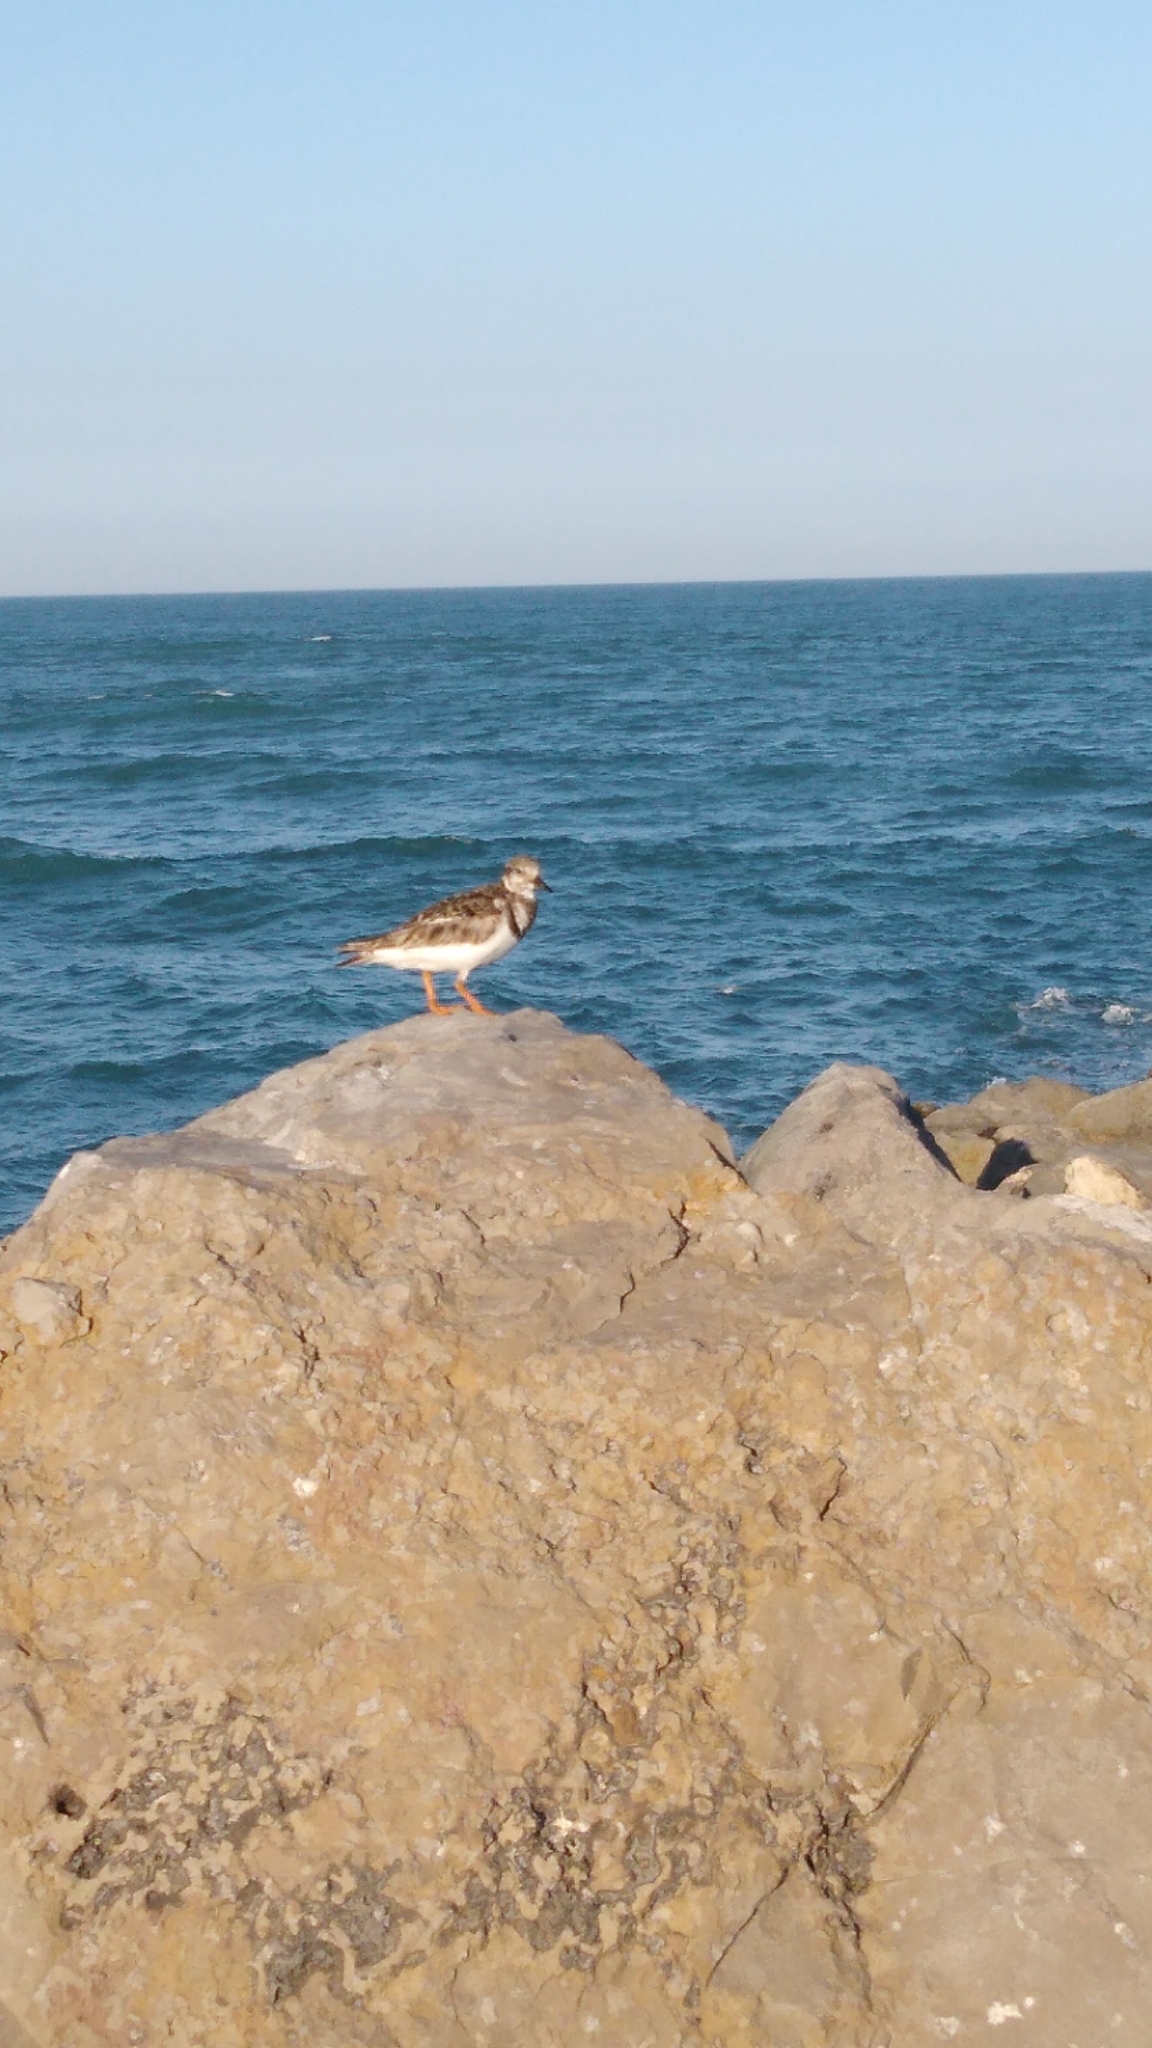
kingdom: Animalia
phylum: Chordata
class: Aves
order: Charadriiformes
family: Scolopacidae
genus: Arenaria
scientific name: Arenaria interpres
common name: Ruddy turnstone
